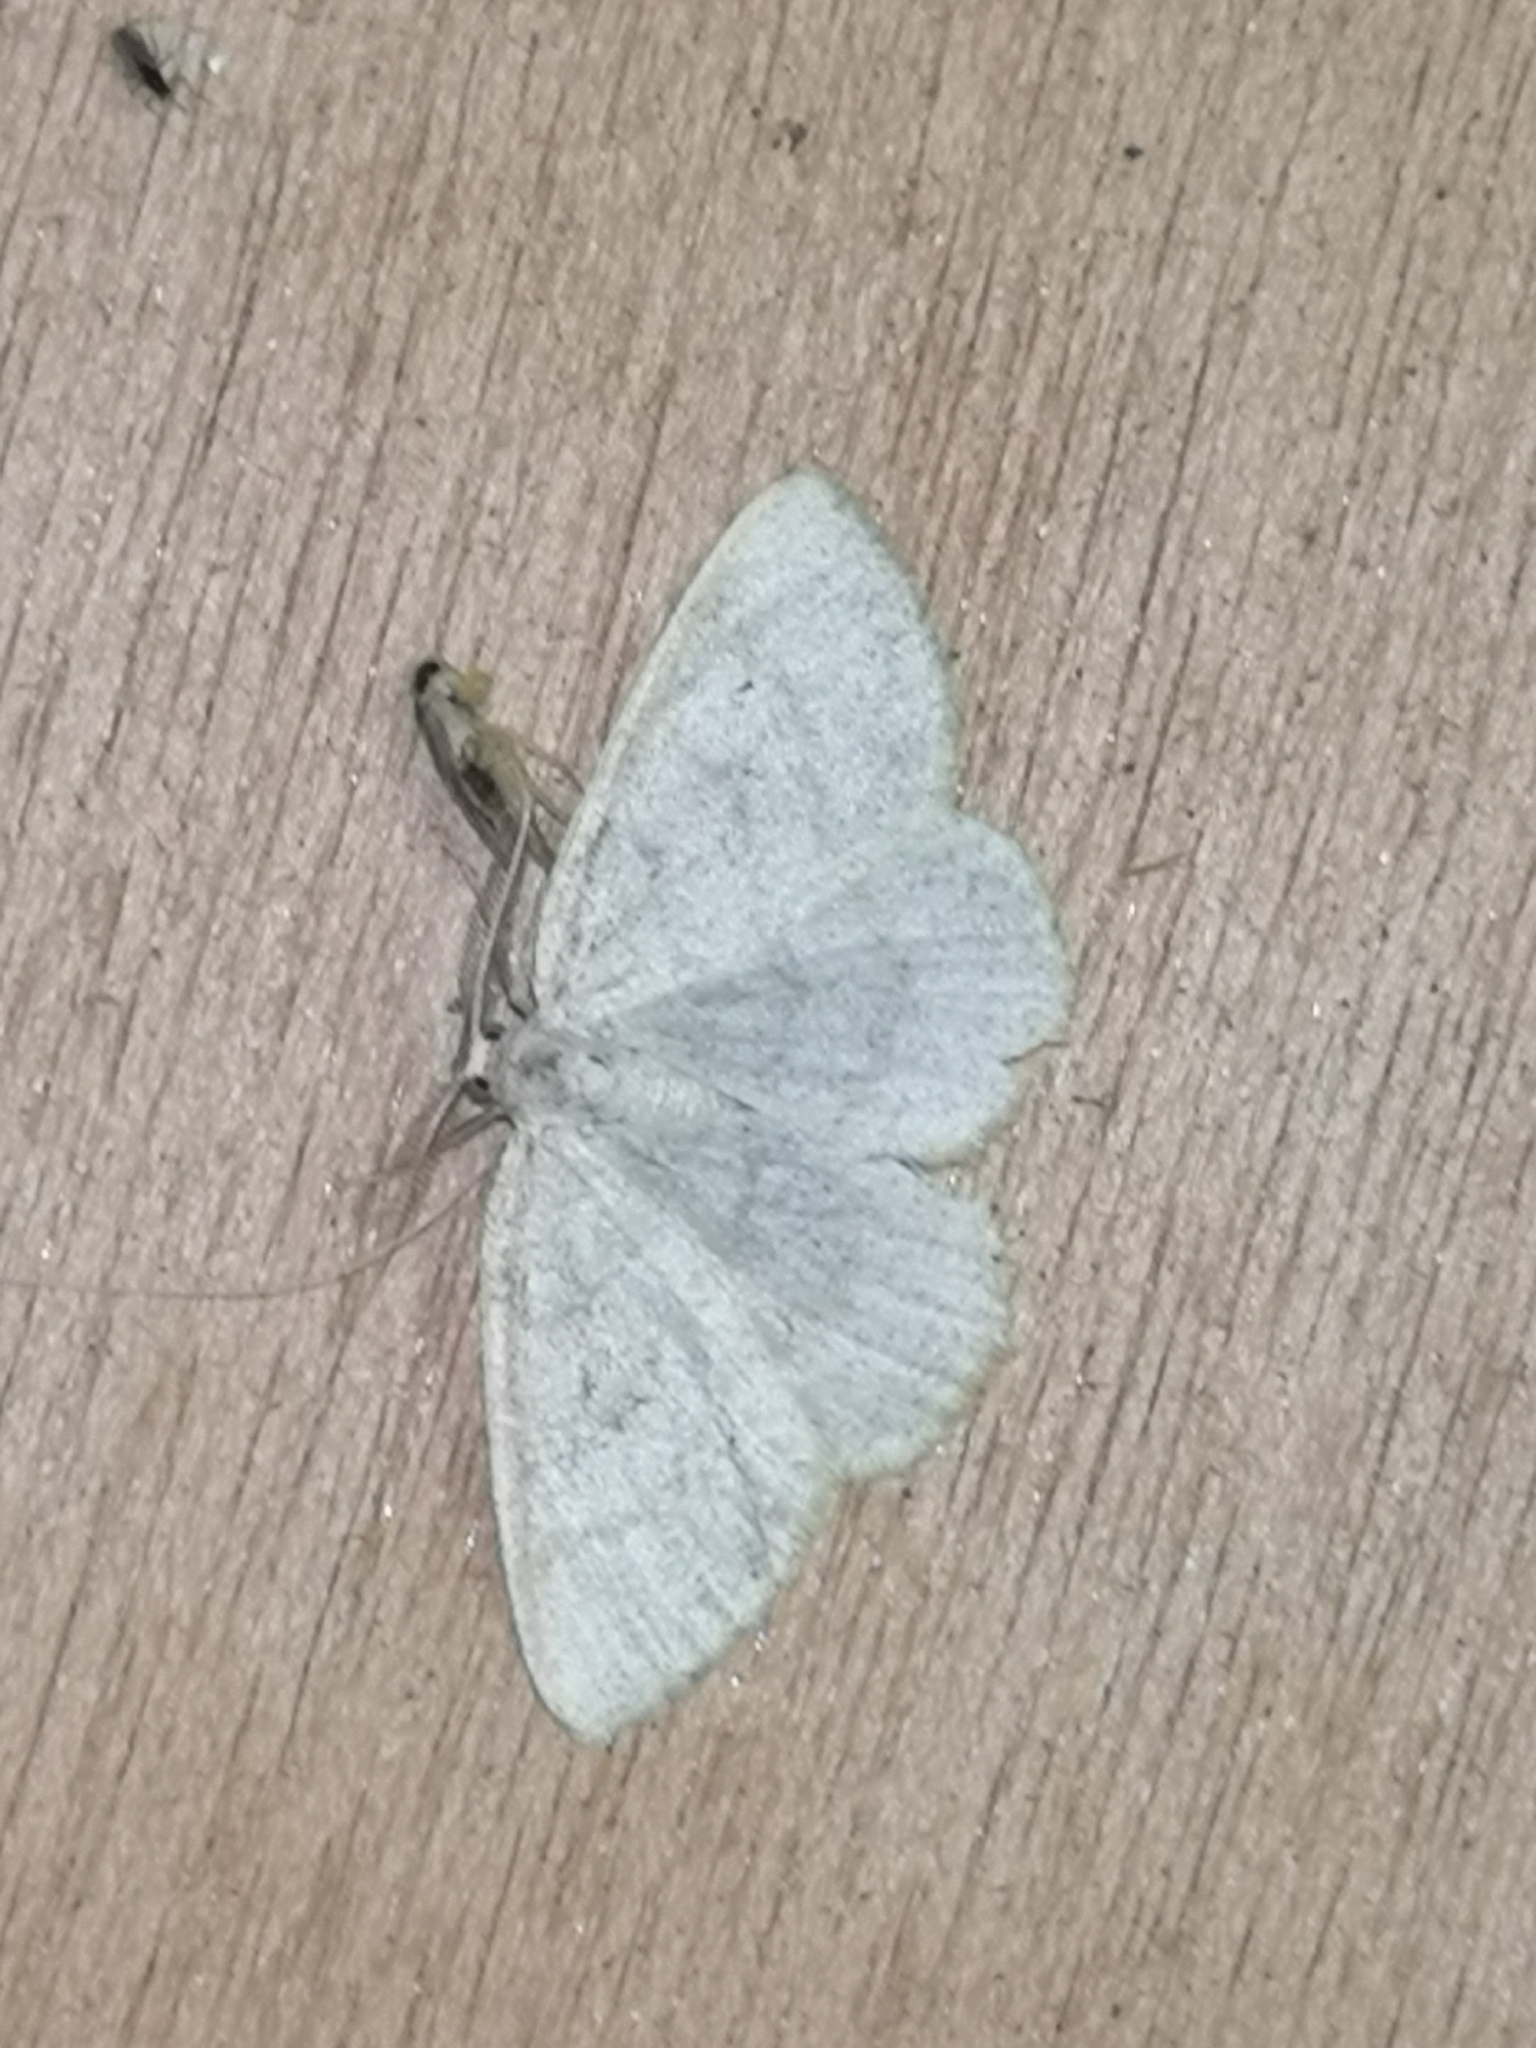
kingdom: Animalia
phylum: Arthropoda
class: Insecta
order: Lepidoptera
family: Geometridae
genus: Cabera
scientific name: Cabera exanthemata
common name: Common wave
